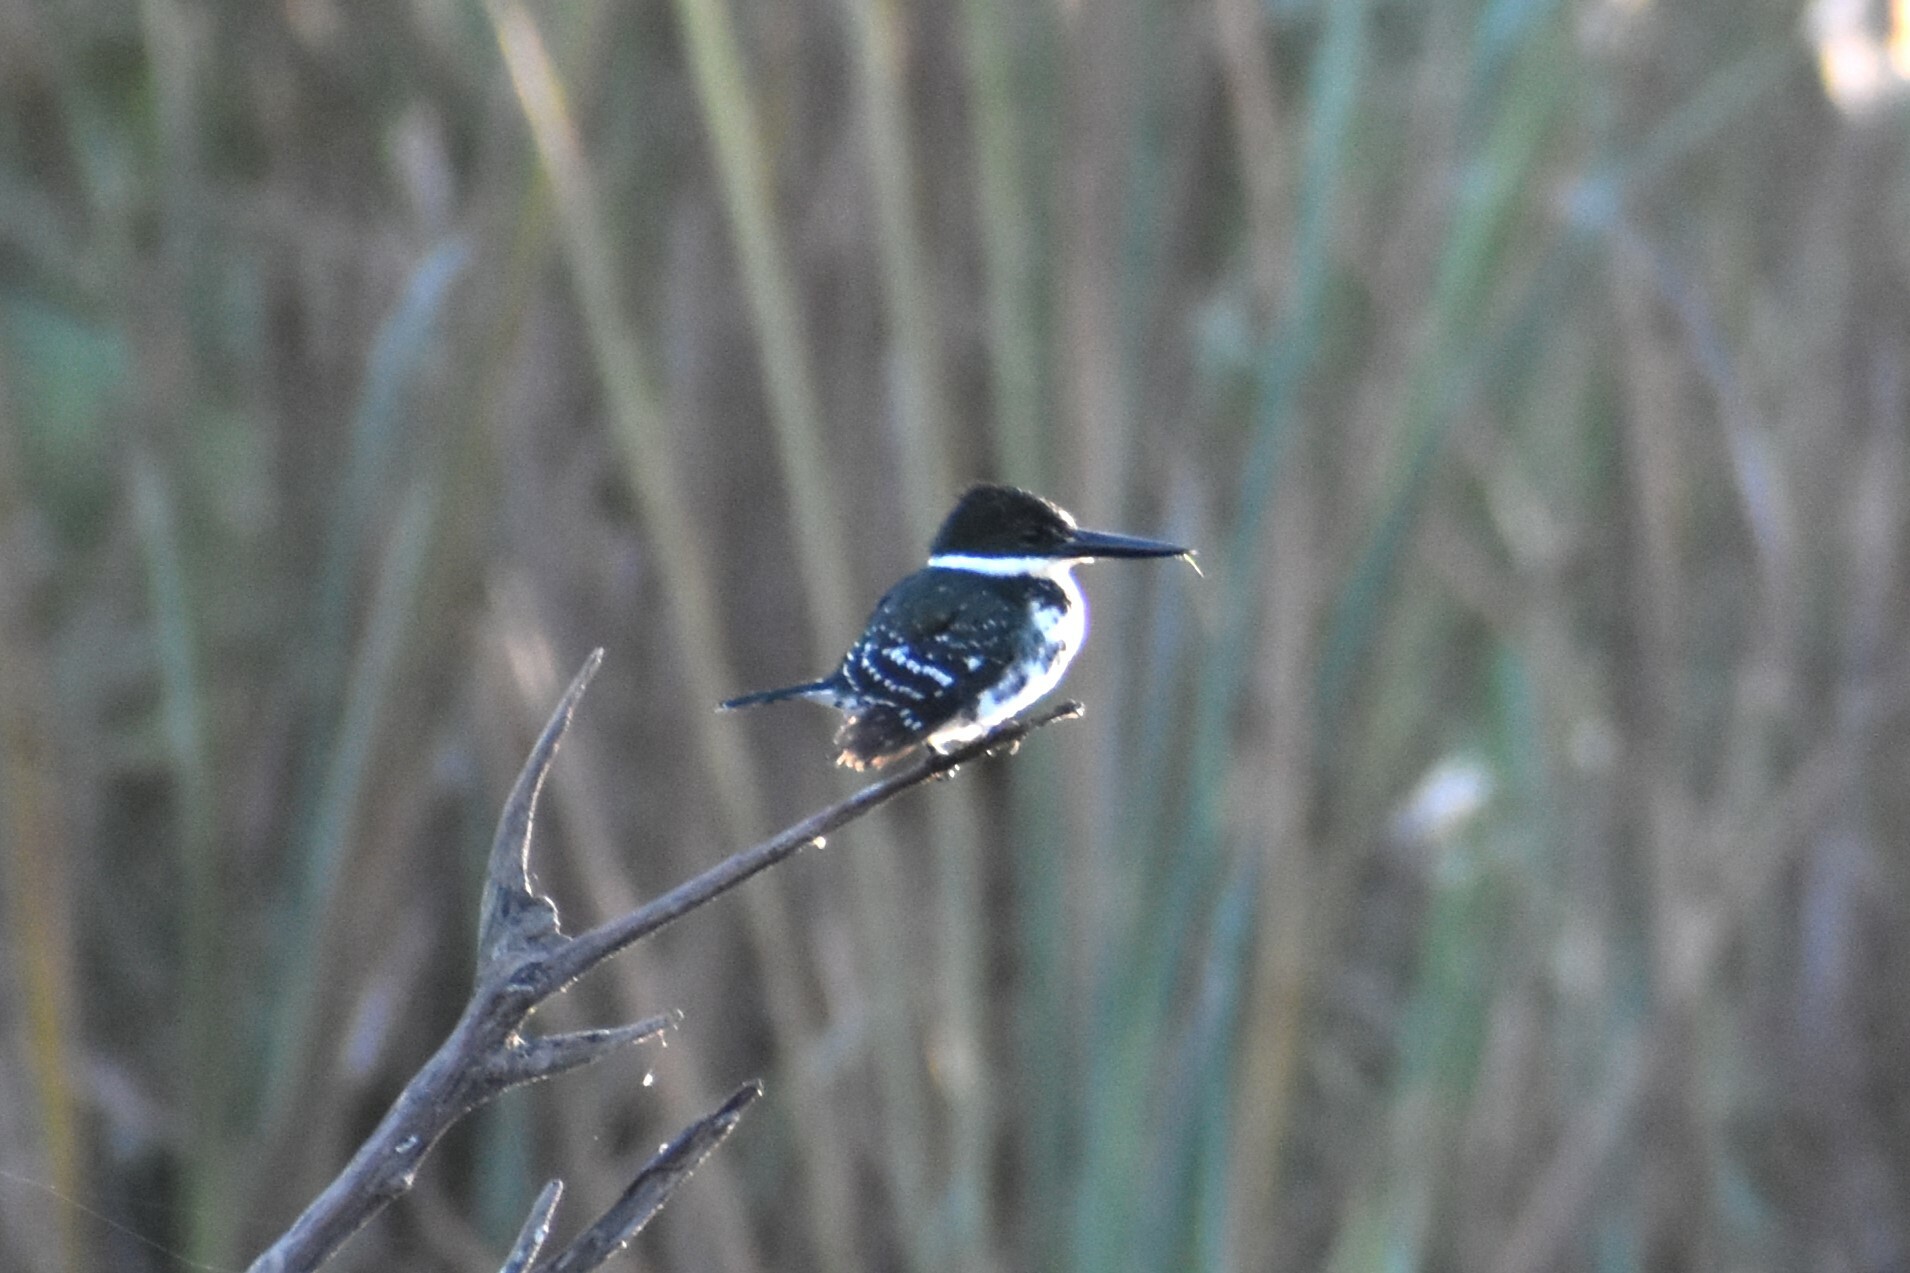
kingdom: Animalia
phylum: Chordata
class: Aves
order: Coraciiformes
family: Alcedinidae
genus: Chloroceryle
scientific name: Chloroceryle americana
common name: Green kingfisher
